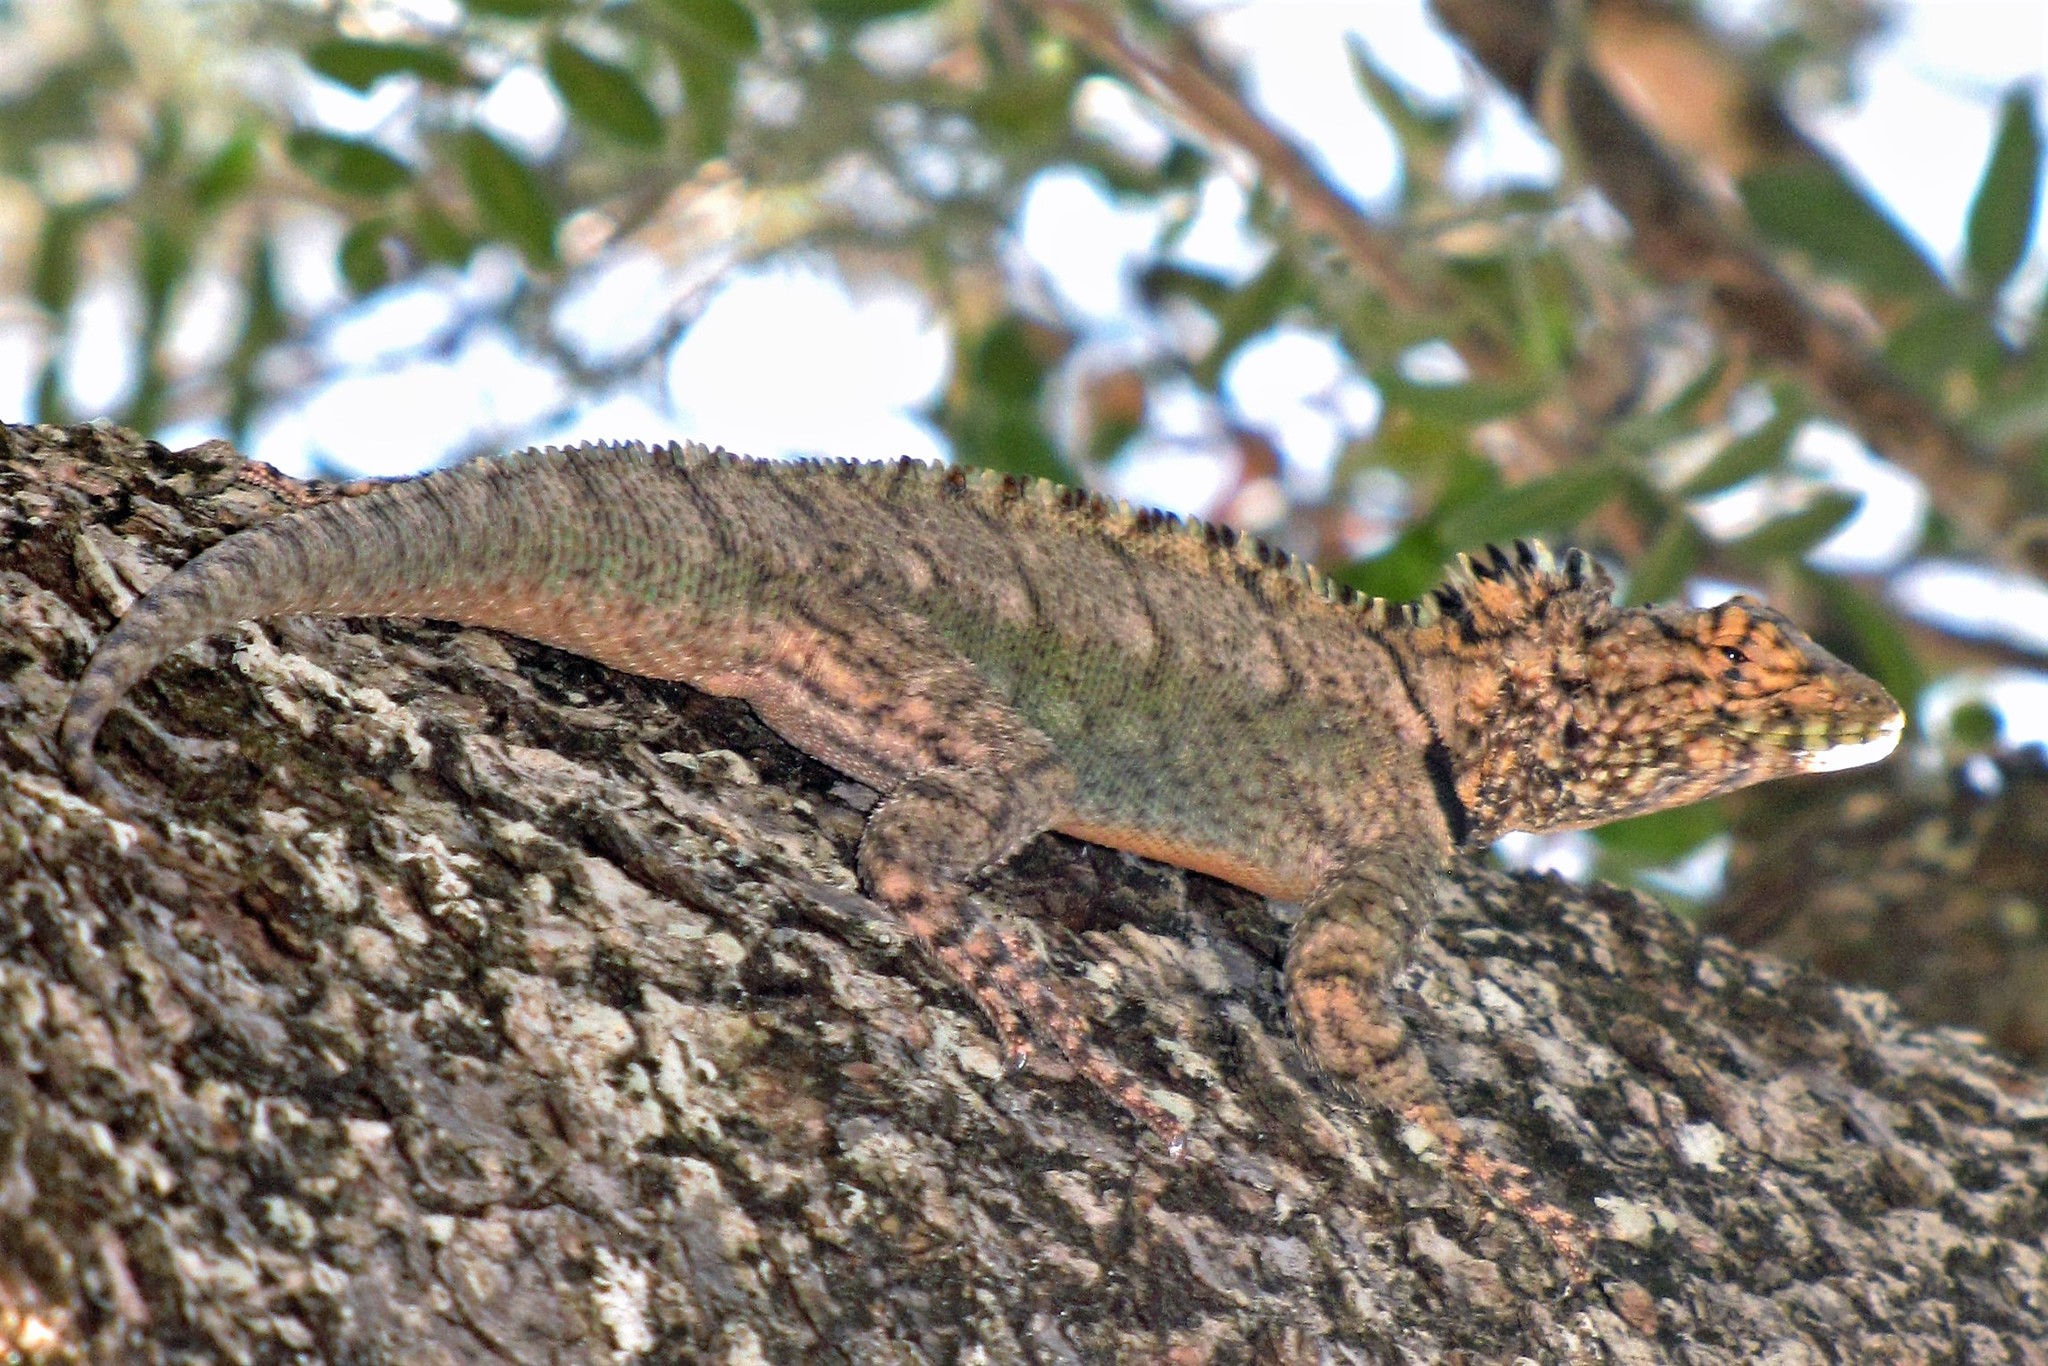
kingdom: Animalia
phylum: Chordata
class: Squamata
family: Tropiduridae
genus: Tropidurus
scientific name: Tropidurus spinulosus
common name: Spiny lava lizard
